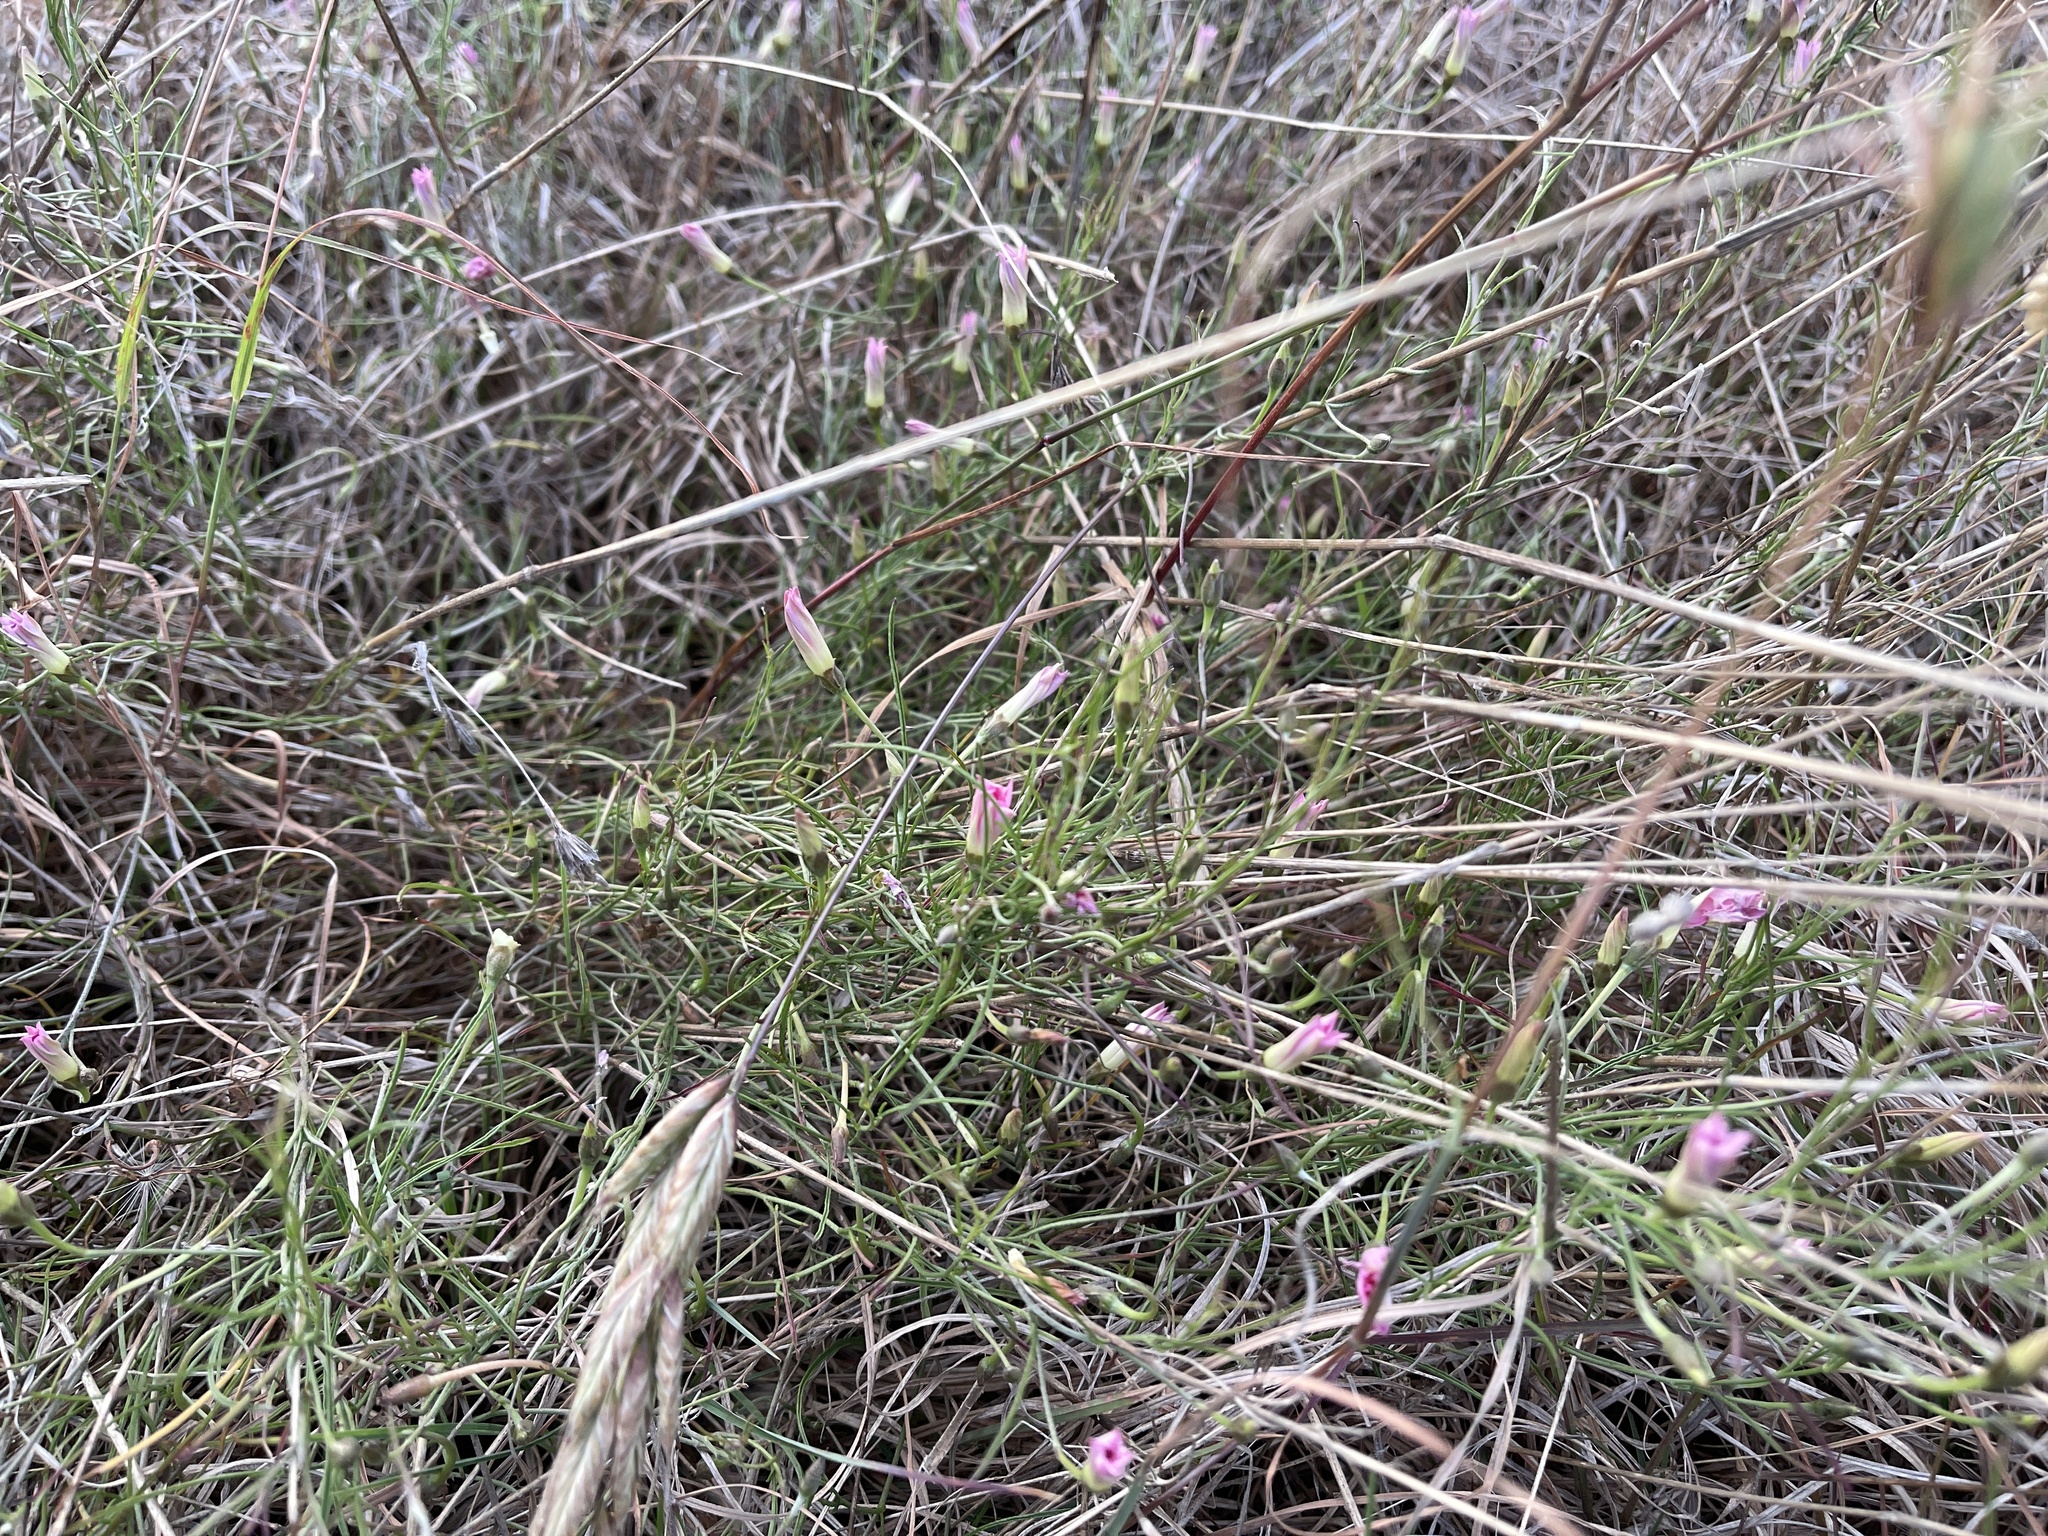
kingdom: Plantae
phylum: Tracheophyta
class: Magnoliopsida
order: Solanales
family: Convolvulaceae
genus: Convolvulus
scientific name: Convolvulus angustissimus
